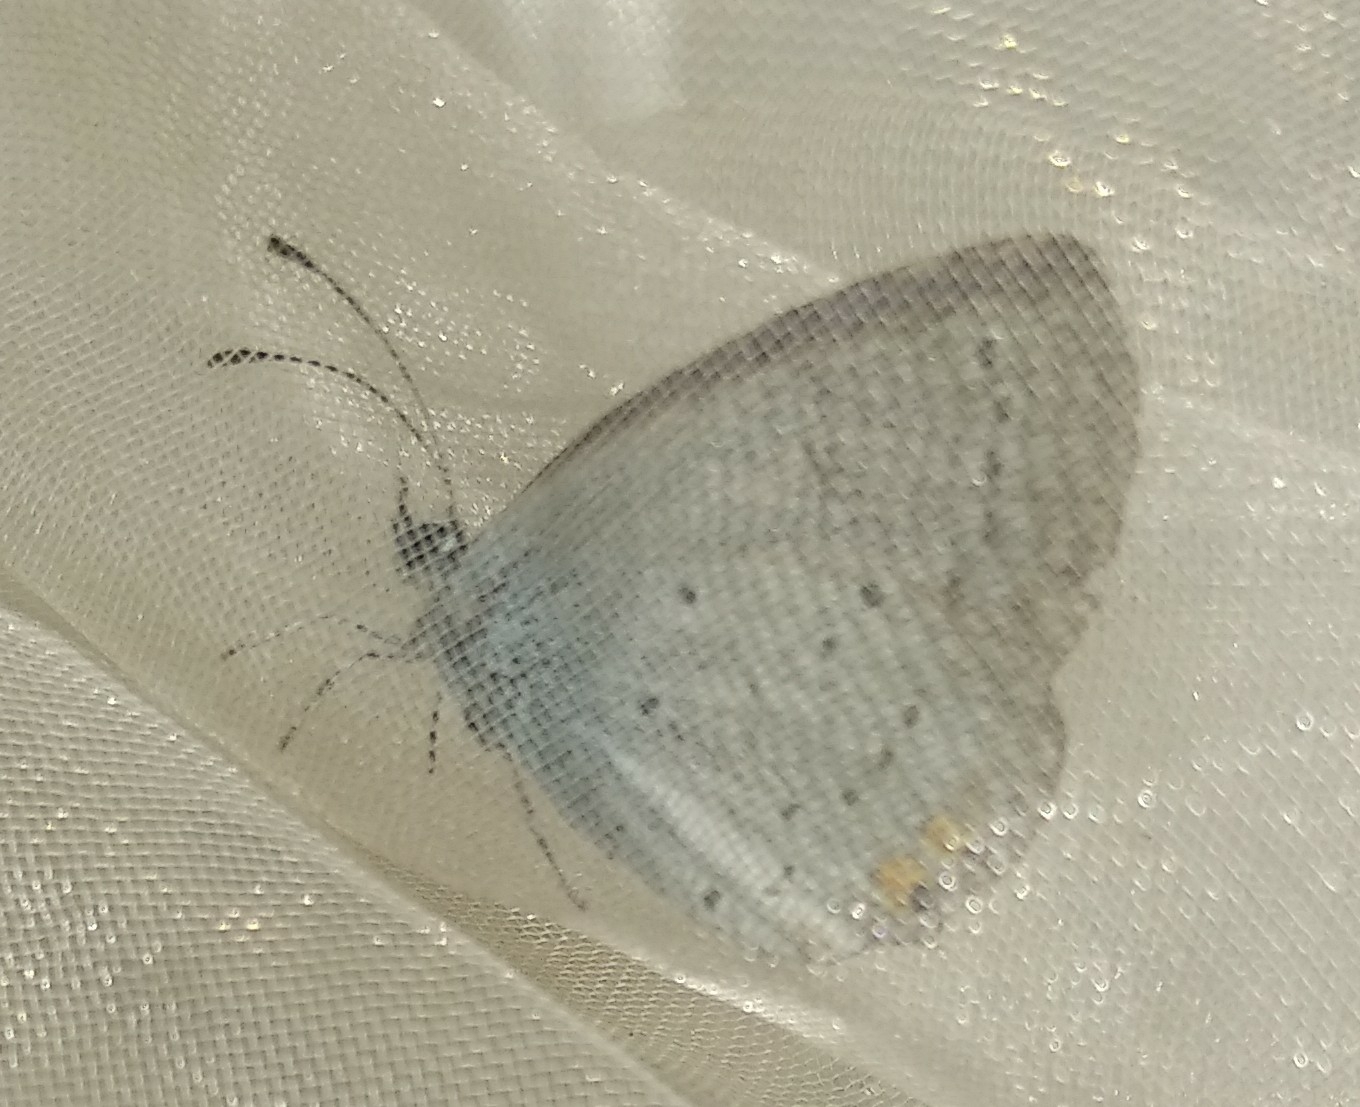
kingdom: Animalia
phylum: Arthropoda
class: Insecta
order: Lepidoptera
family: Lycaenidae
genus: Elkalyce
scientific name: Elkalyce argiades
